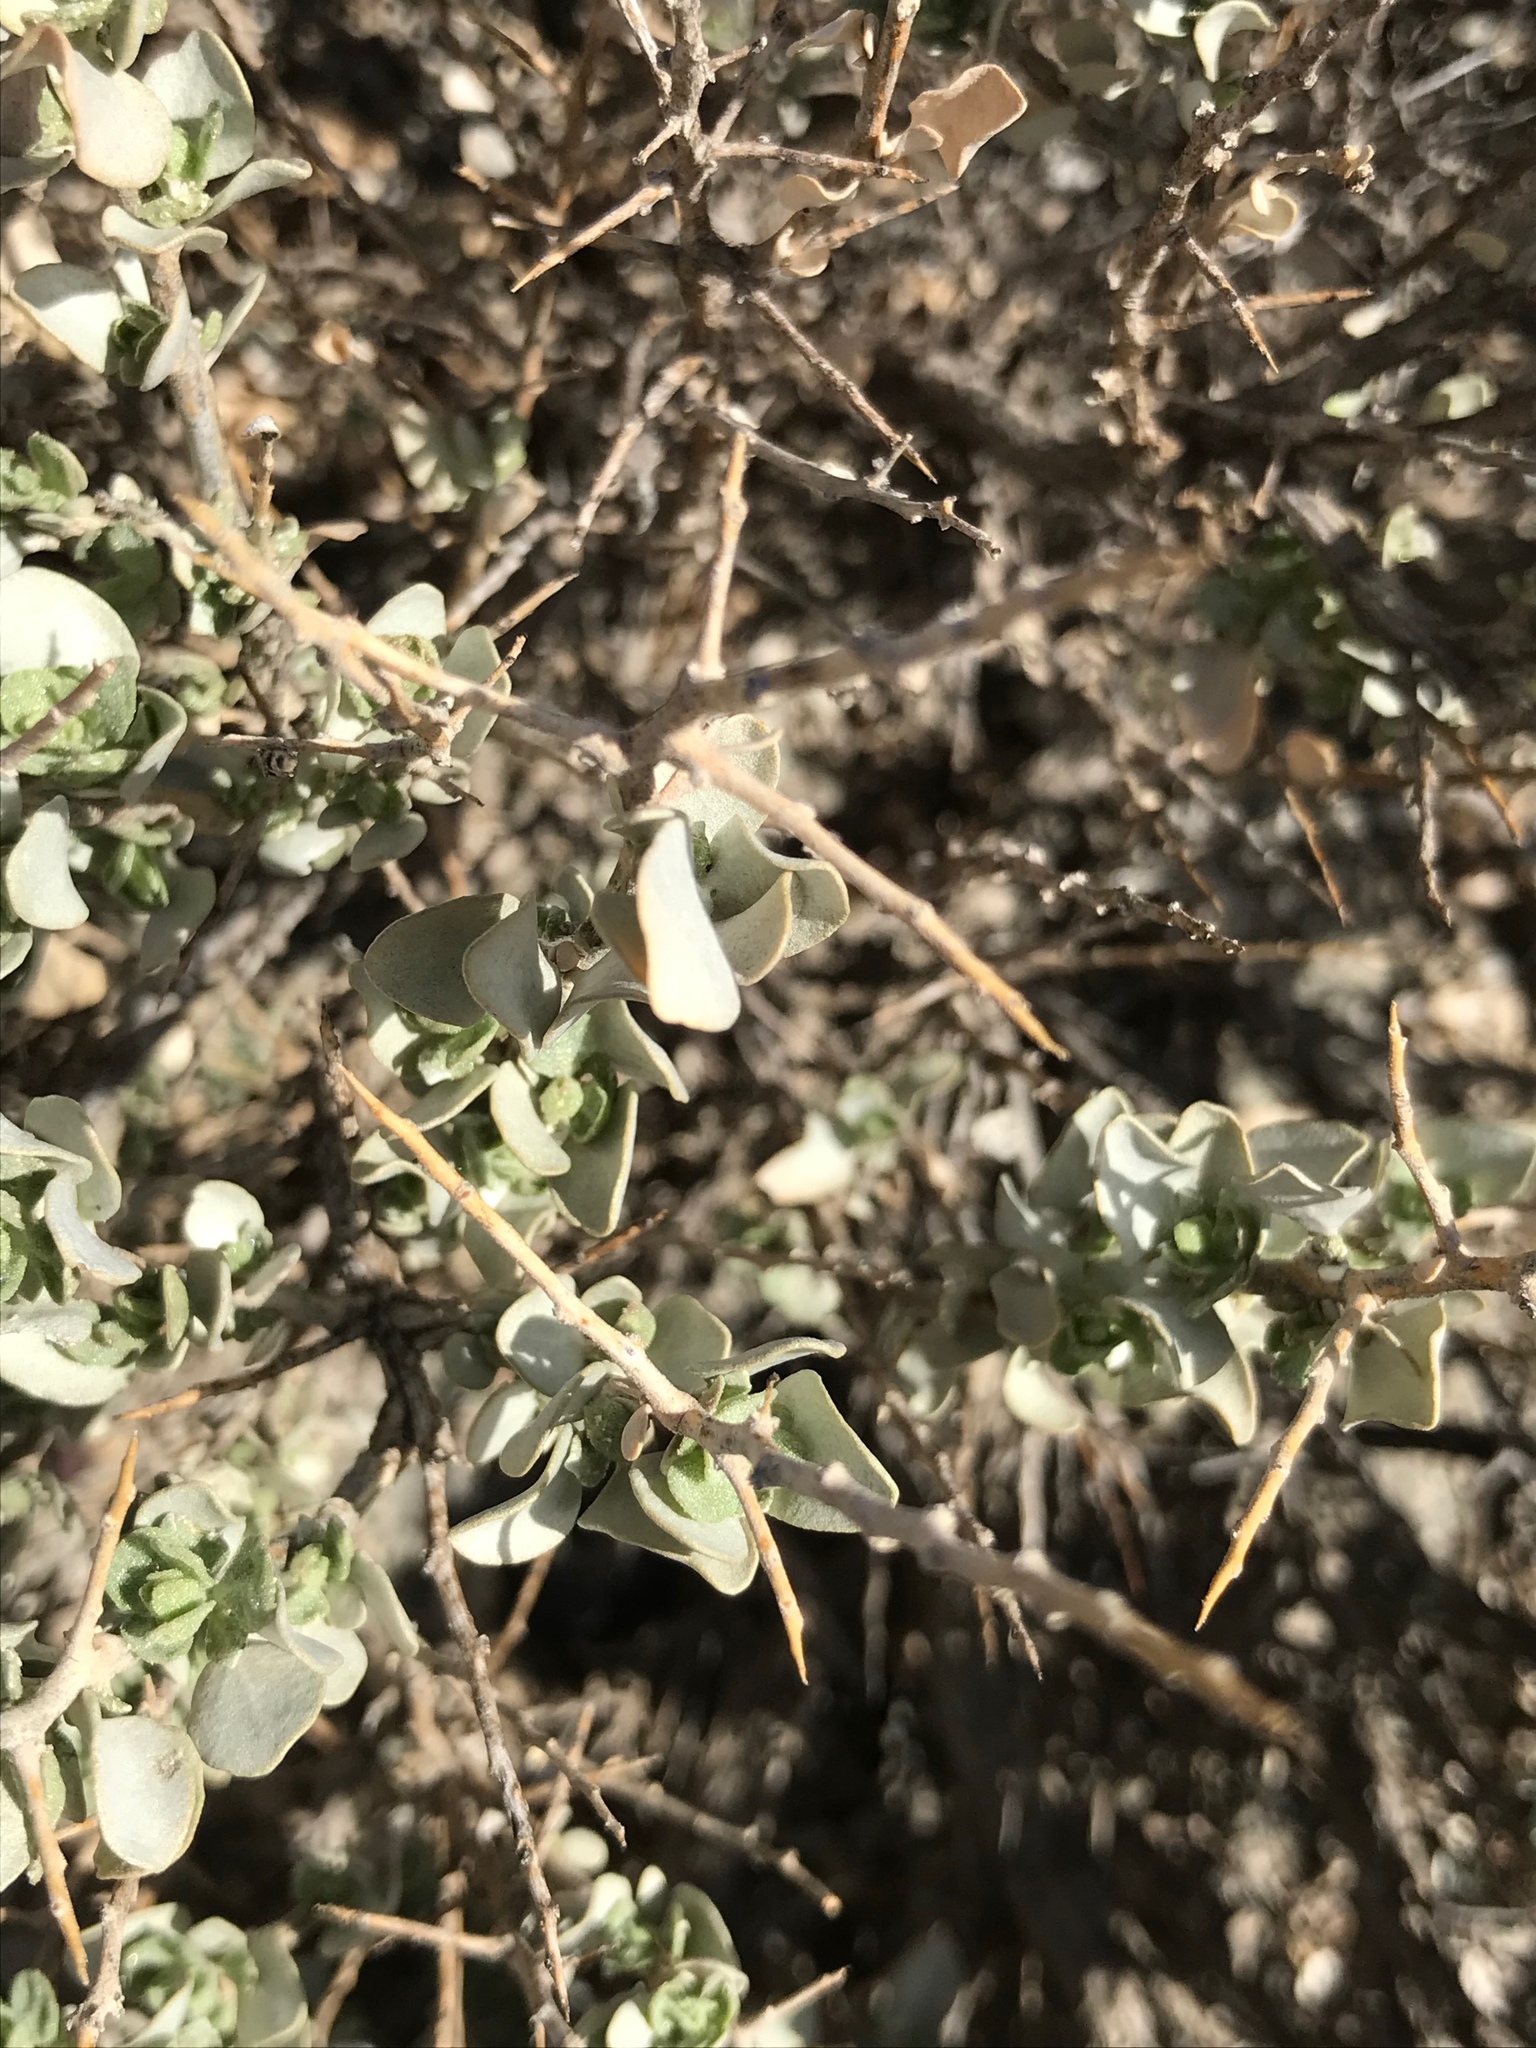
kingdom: Plantae
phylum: Tracheophyta
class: Magnoliopsida
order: Caryophyllales
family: Amaranthaceae
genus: Atriplex
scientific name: Atriplex confertifolia
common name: Shadscale
